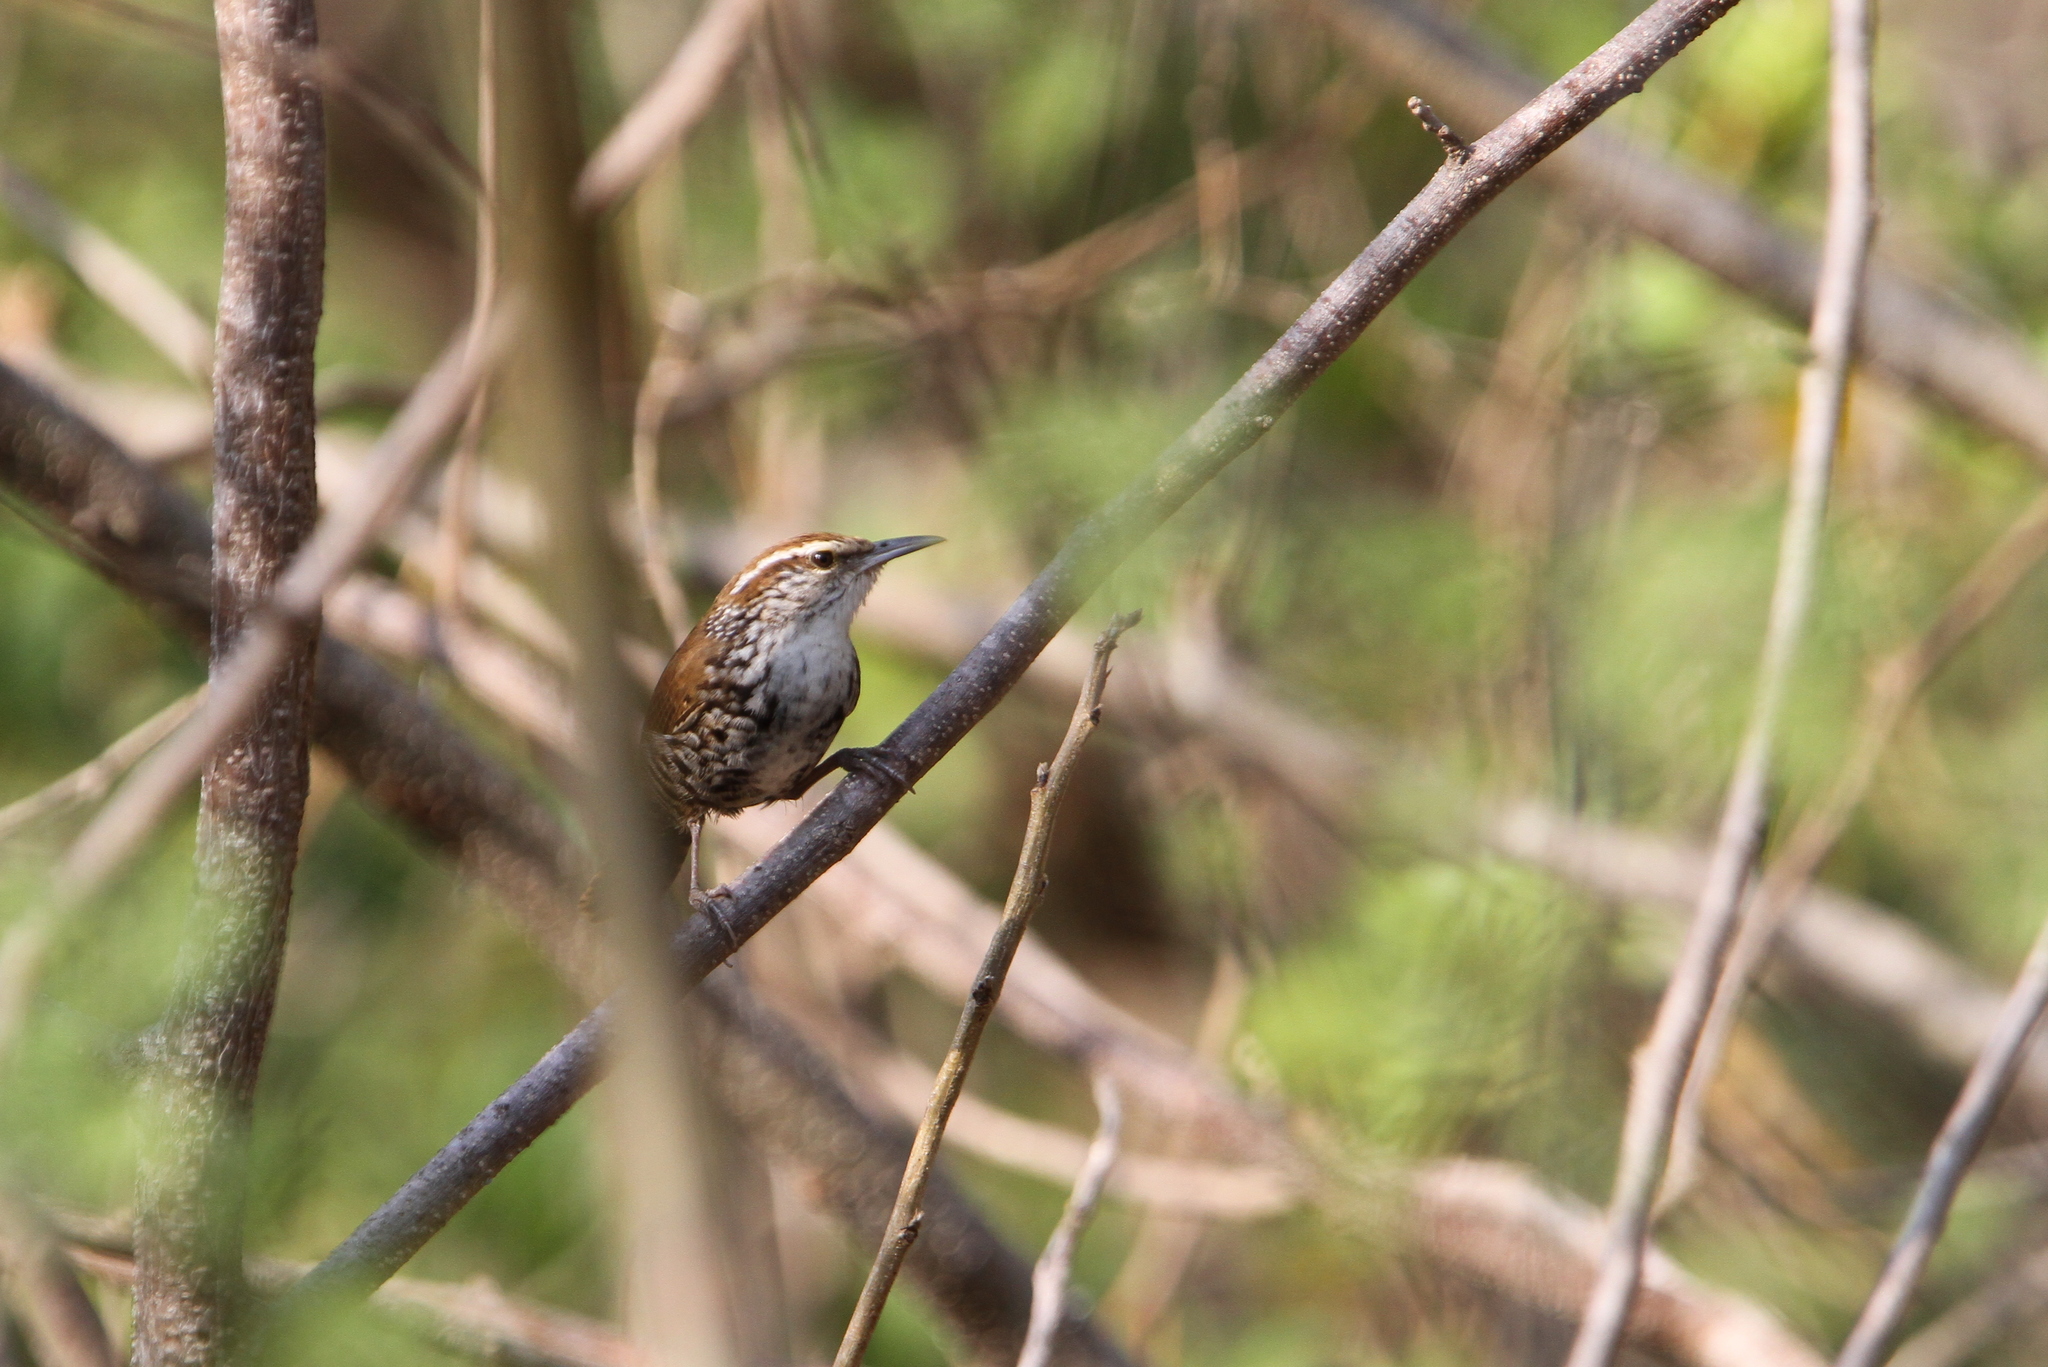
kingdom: Animalia
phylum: Chordata
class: Aves
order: Passeriformes
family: Troglodytidae
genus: Thryophilus
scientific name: Thryophilus pleurostictus
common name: Banded wren
